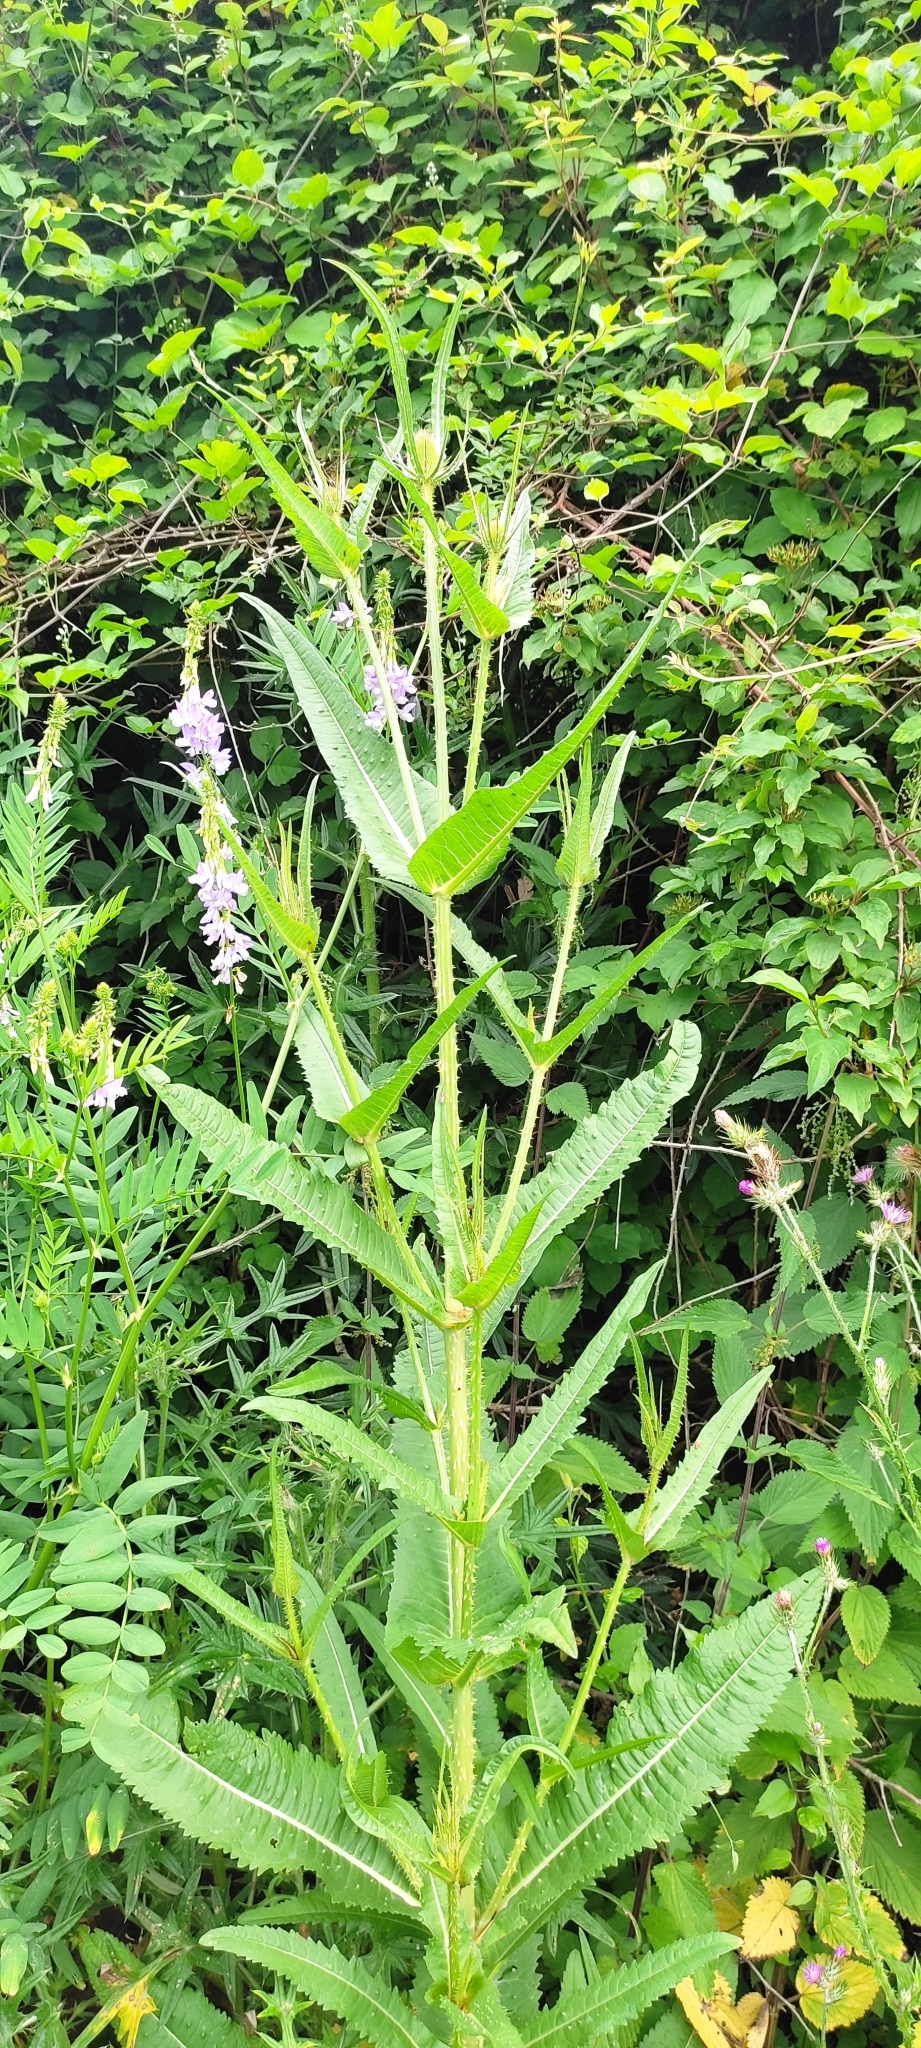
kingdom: Plantae
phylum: Tracheophyta
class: Magnoliopsida
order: Dipsacales
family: Caprifoliaceae
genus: Dipsacus
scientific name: Dipsacus fullonum
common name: Teasel
